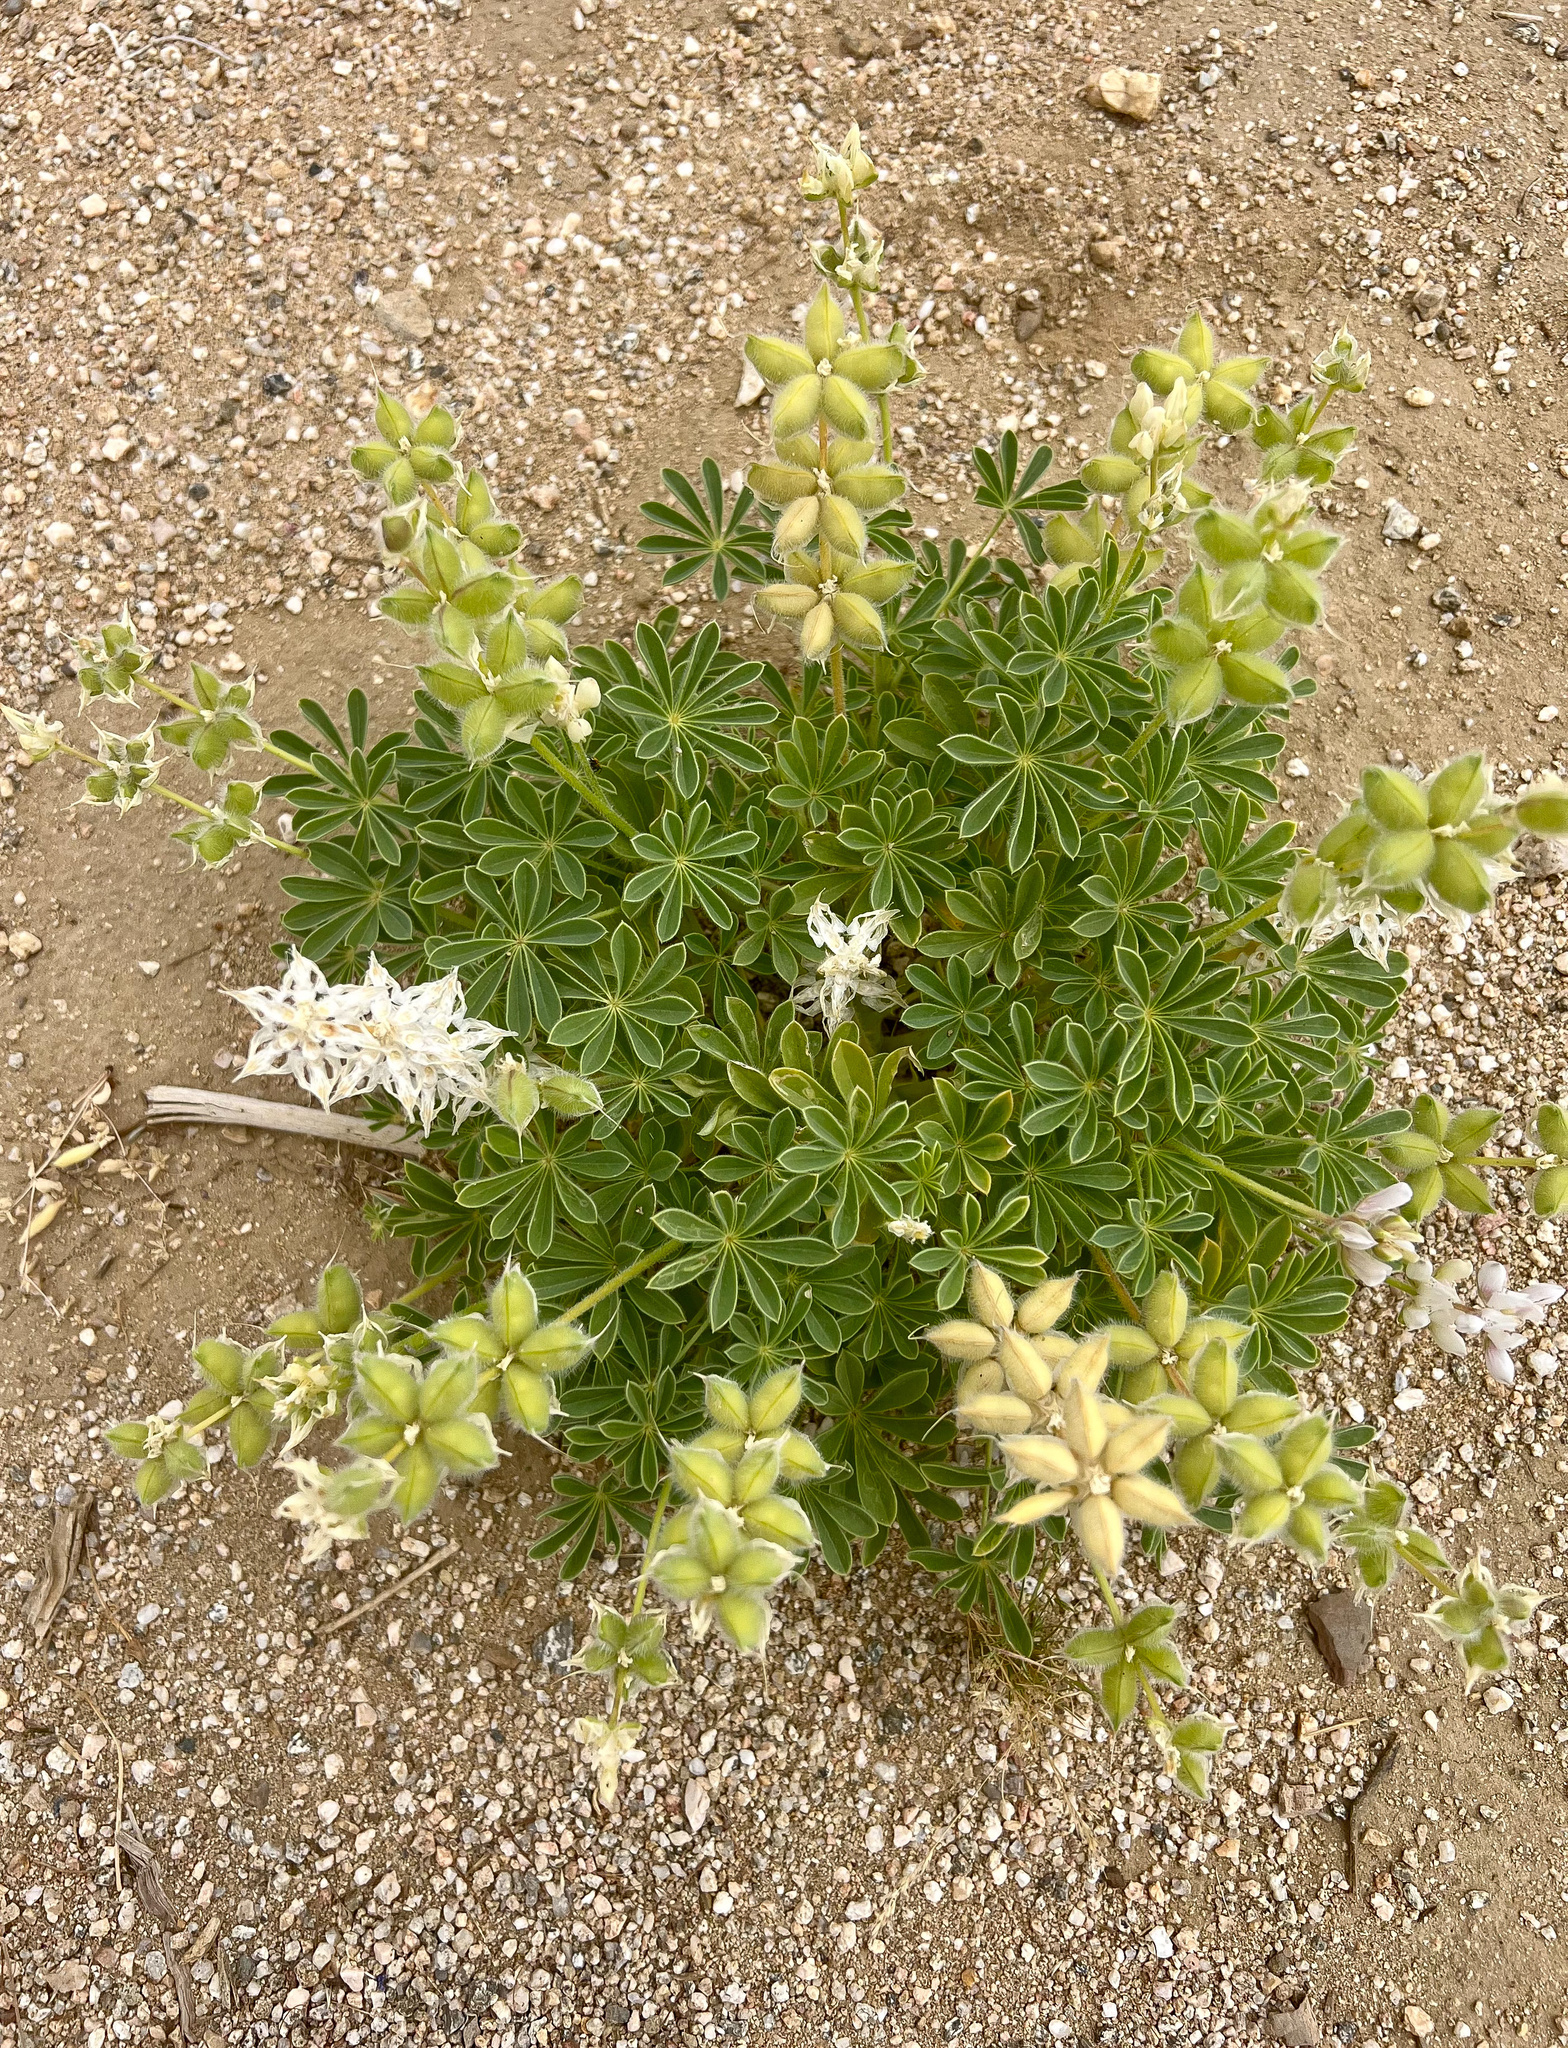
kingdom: Plantae
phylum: Tracheophyta
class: Magnoliopsida
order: Fabales
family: Fabaceae
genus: Lupinus
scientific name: Lupinus microcarpus
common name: Chick lupine
